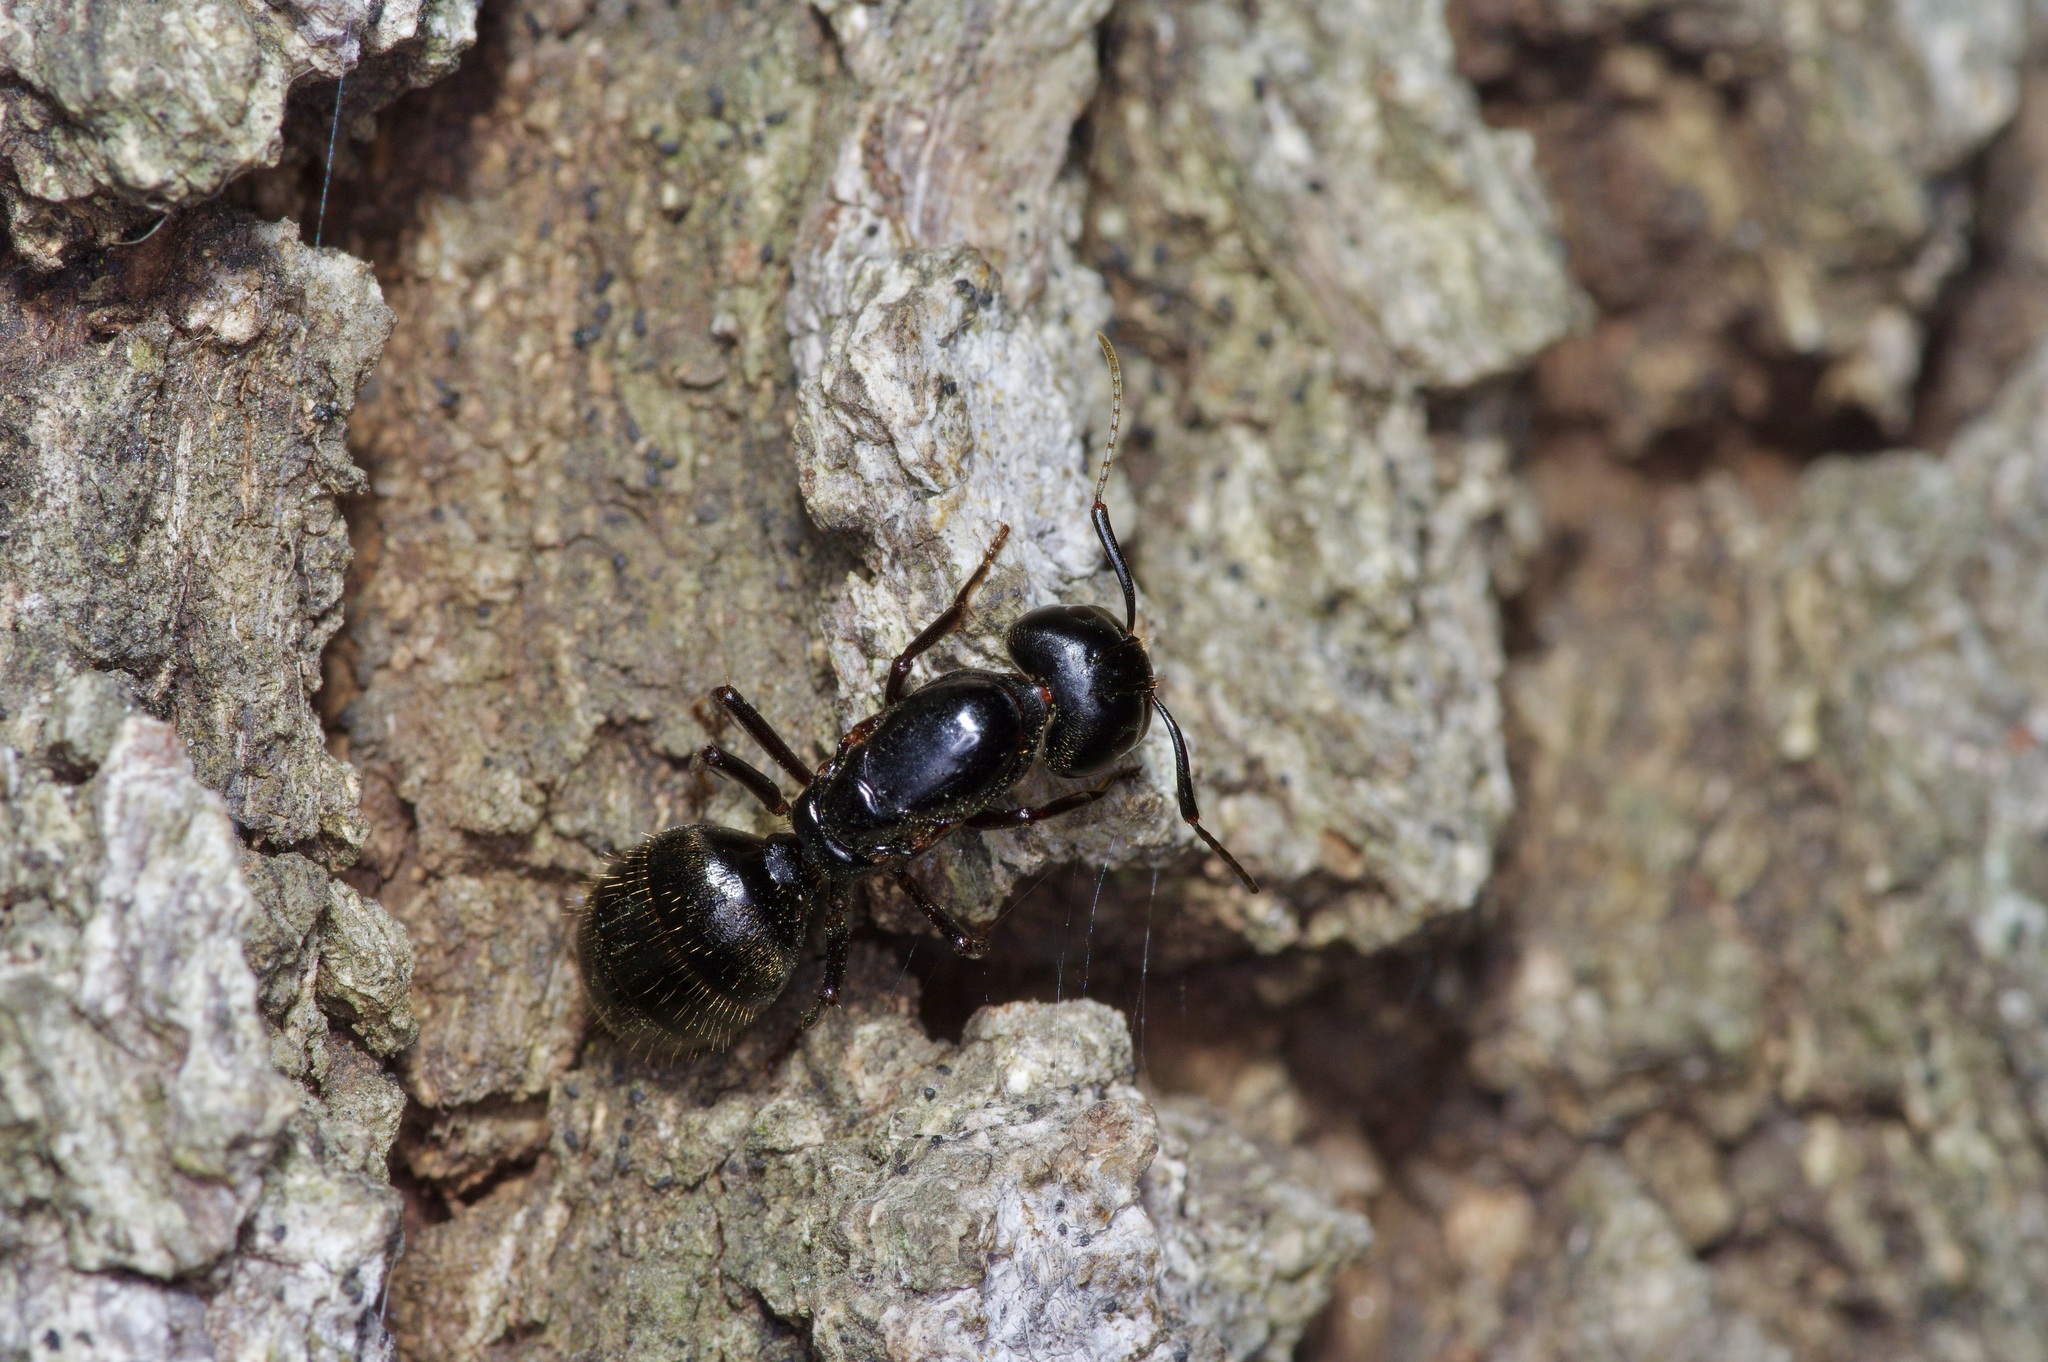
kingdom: Animalia
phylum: Arthropoda
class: Insecta
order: Hymenoptera
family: Formicidae
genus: Camponotus
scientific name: Camponotus pennsylvanicus
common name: Black carpenter ant
